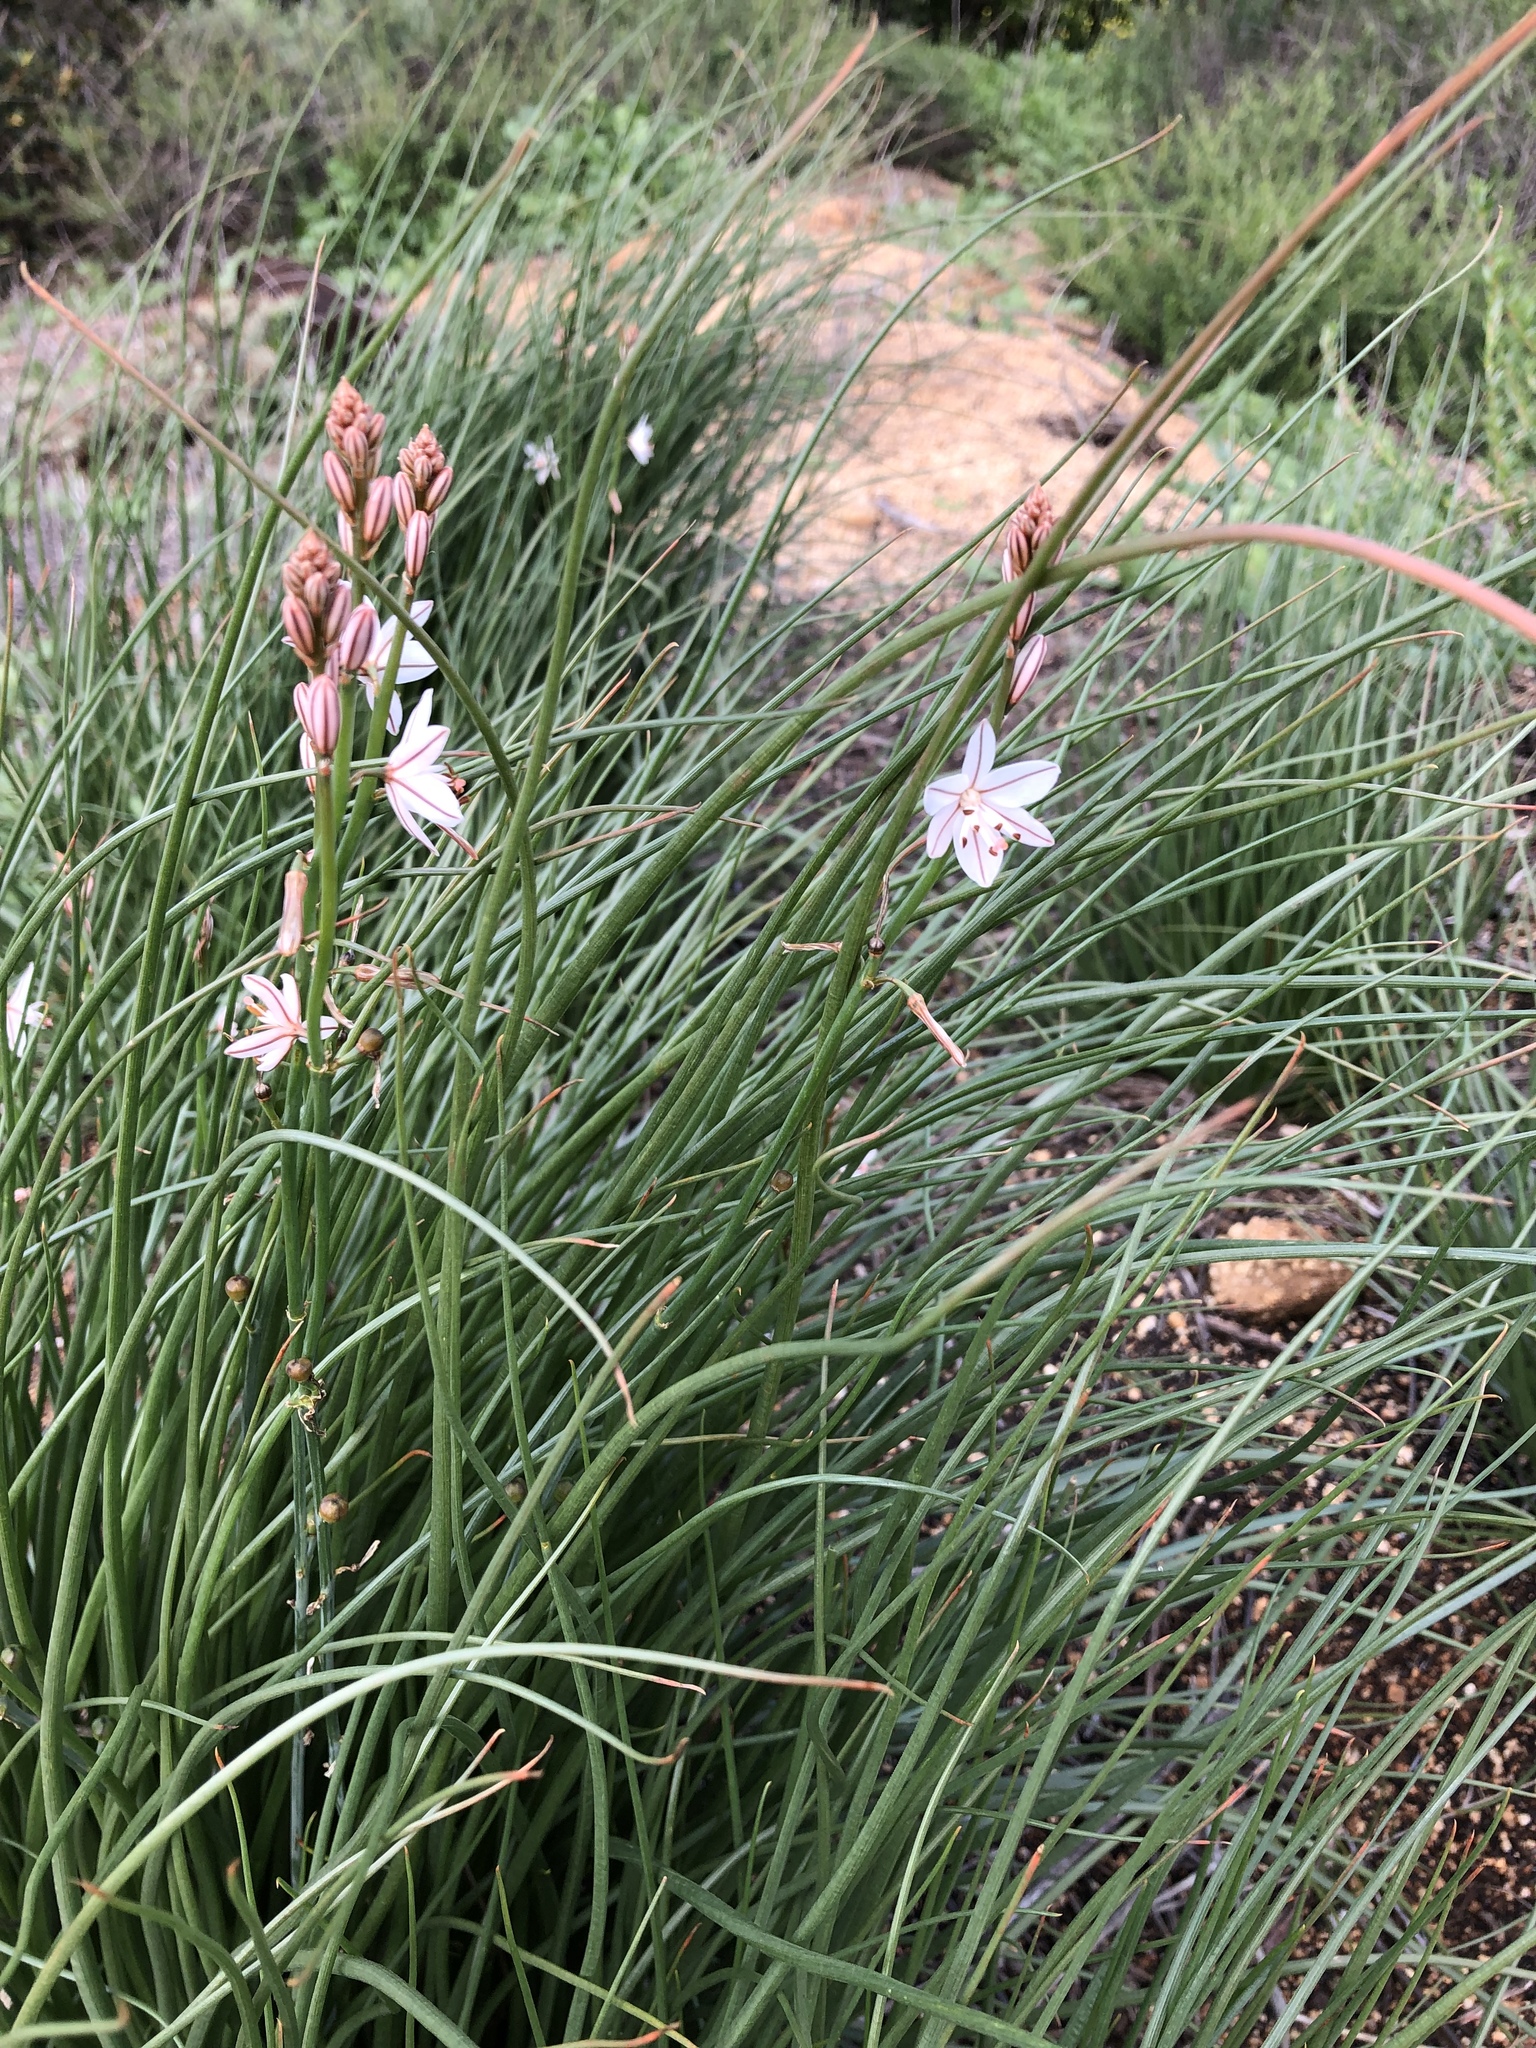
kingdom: Plantae
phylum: Tracheophyta
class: Liliopsida
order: Asparagales
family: Asphodelaceae
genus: Asphodelus
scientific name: Asphodelus fistulosus
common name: Onionweed
